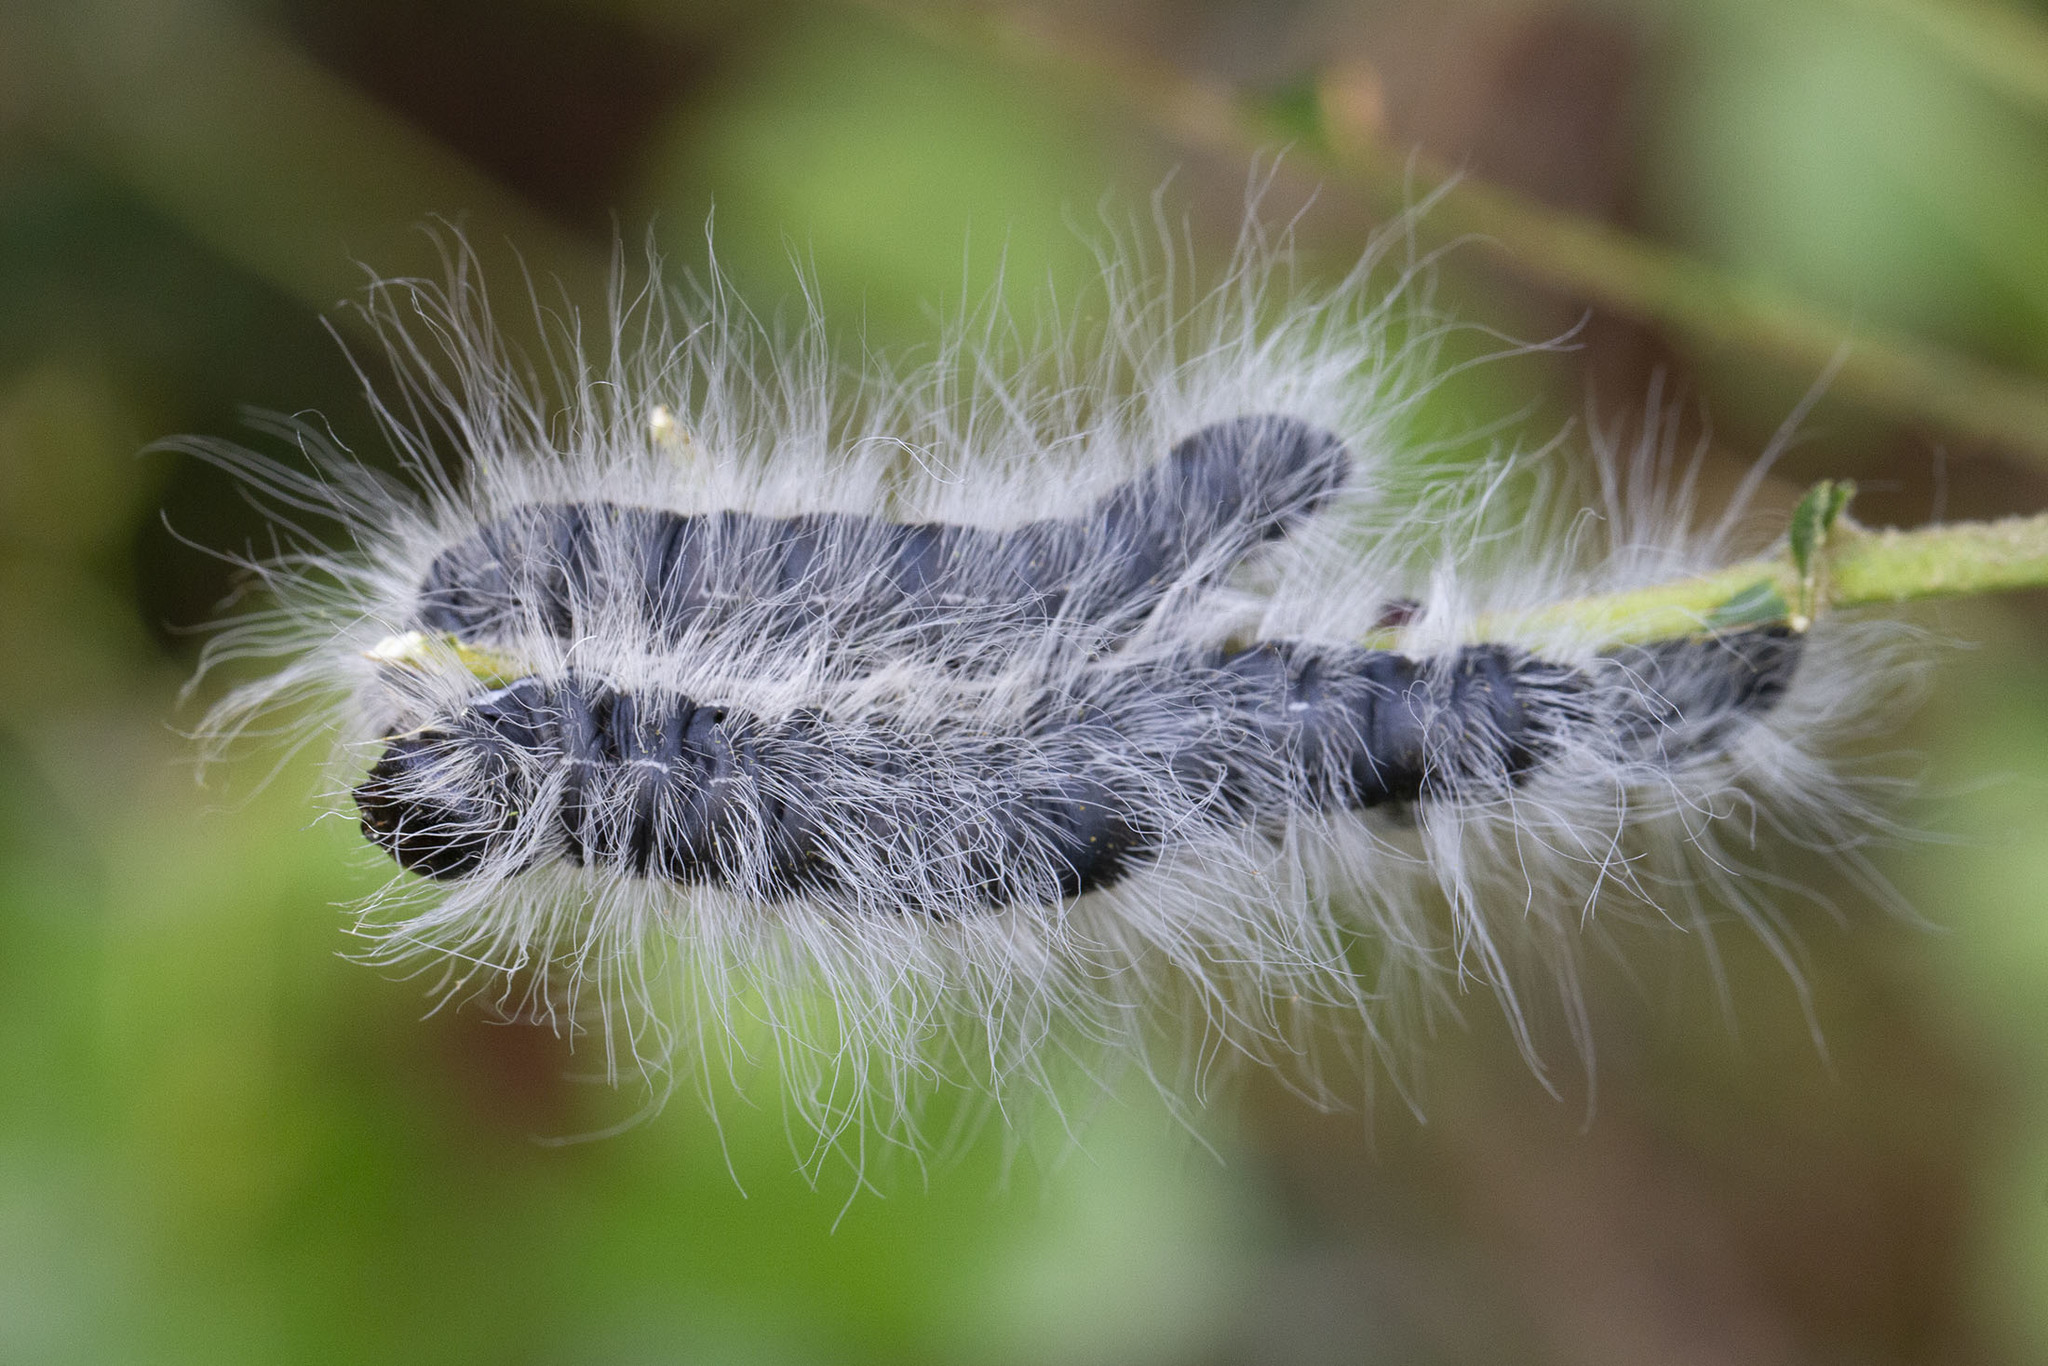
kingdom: Animalia
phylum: Arthropoda
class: Insecta
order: Lepidoptera
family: Notodontidae
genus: Datana
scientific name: Datana integerrima
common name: Walnut caterpillar
